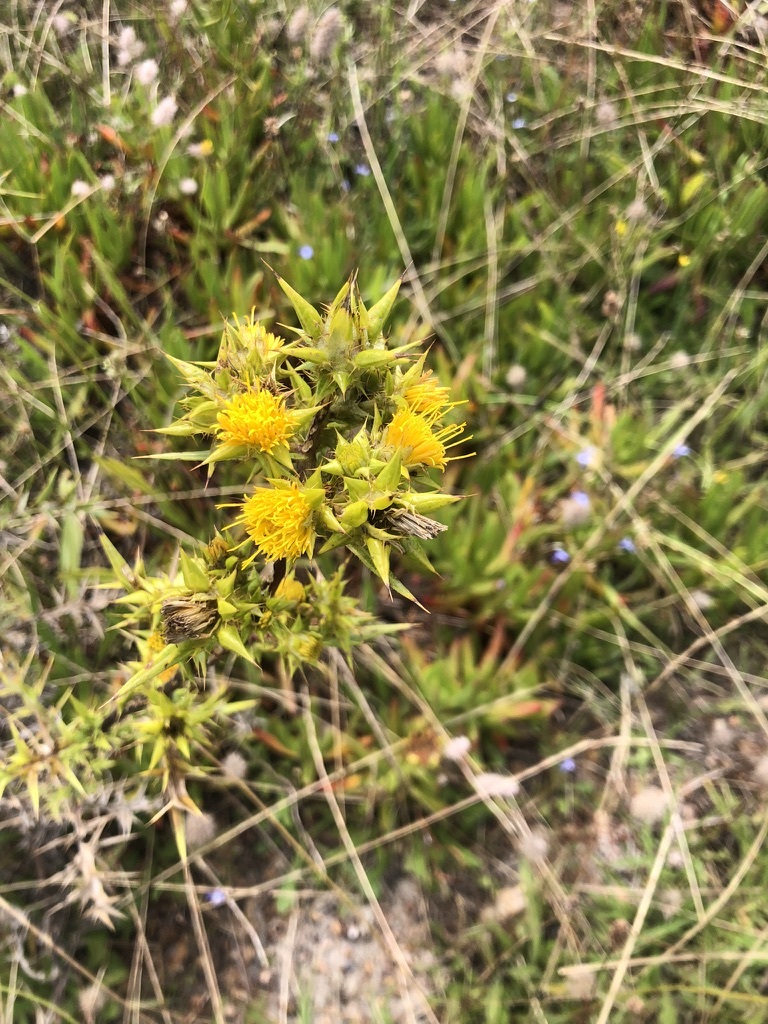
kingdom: Plantae
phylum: Tracheophyta
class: Magnoliopsida
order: Asterales
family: Asteraceae
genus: Berkheya
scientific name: Berkheya rigida
